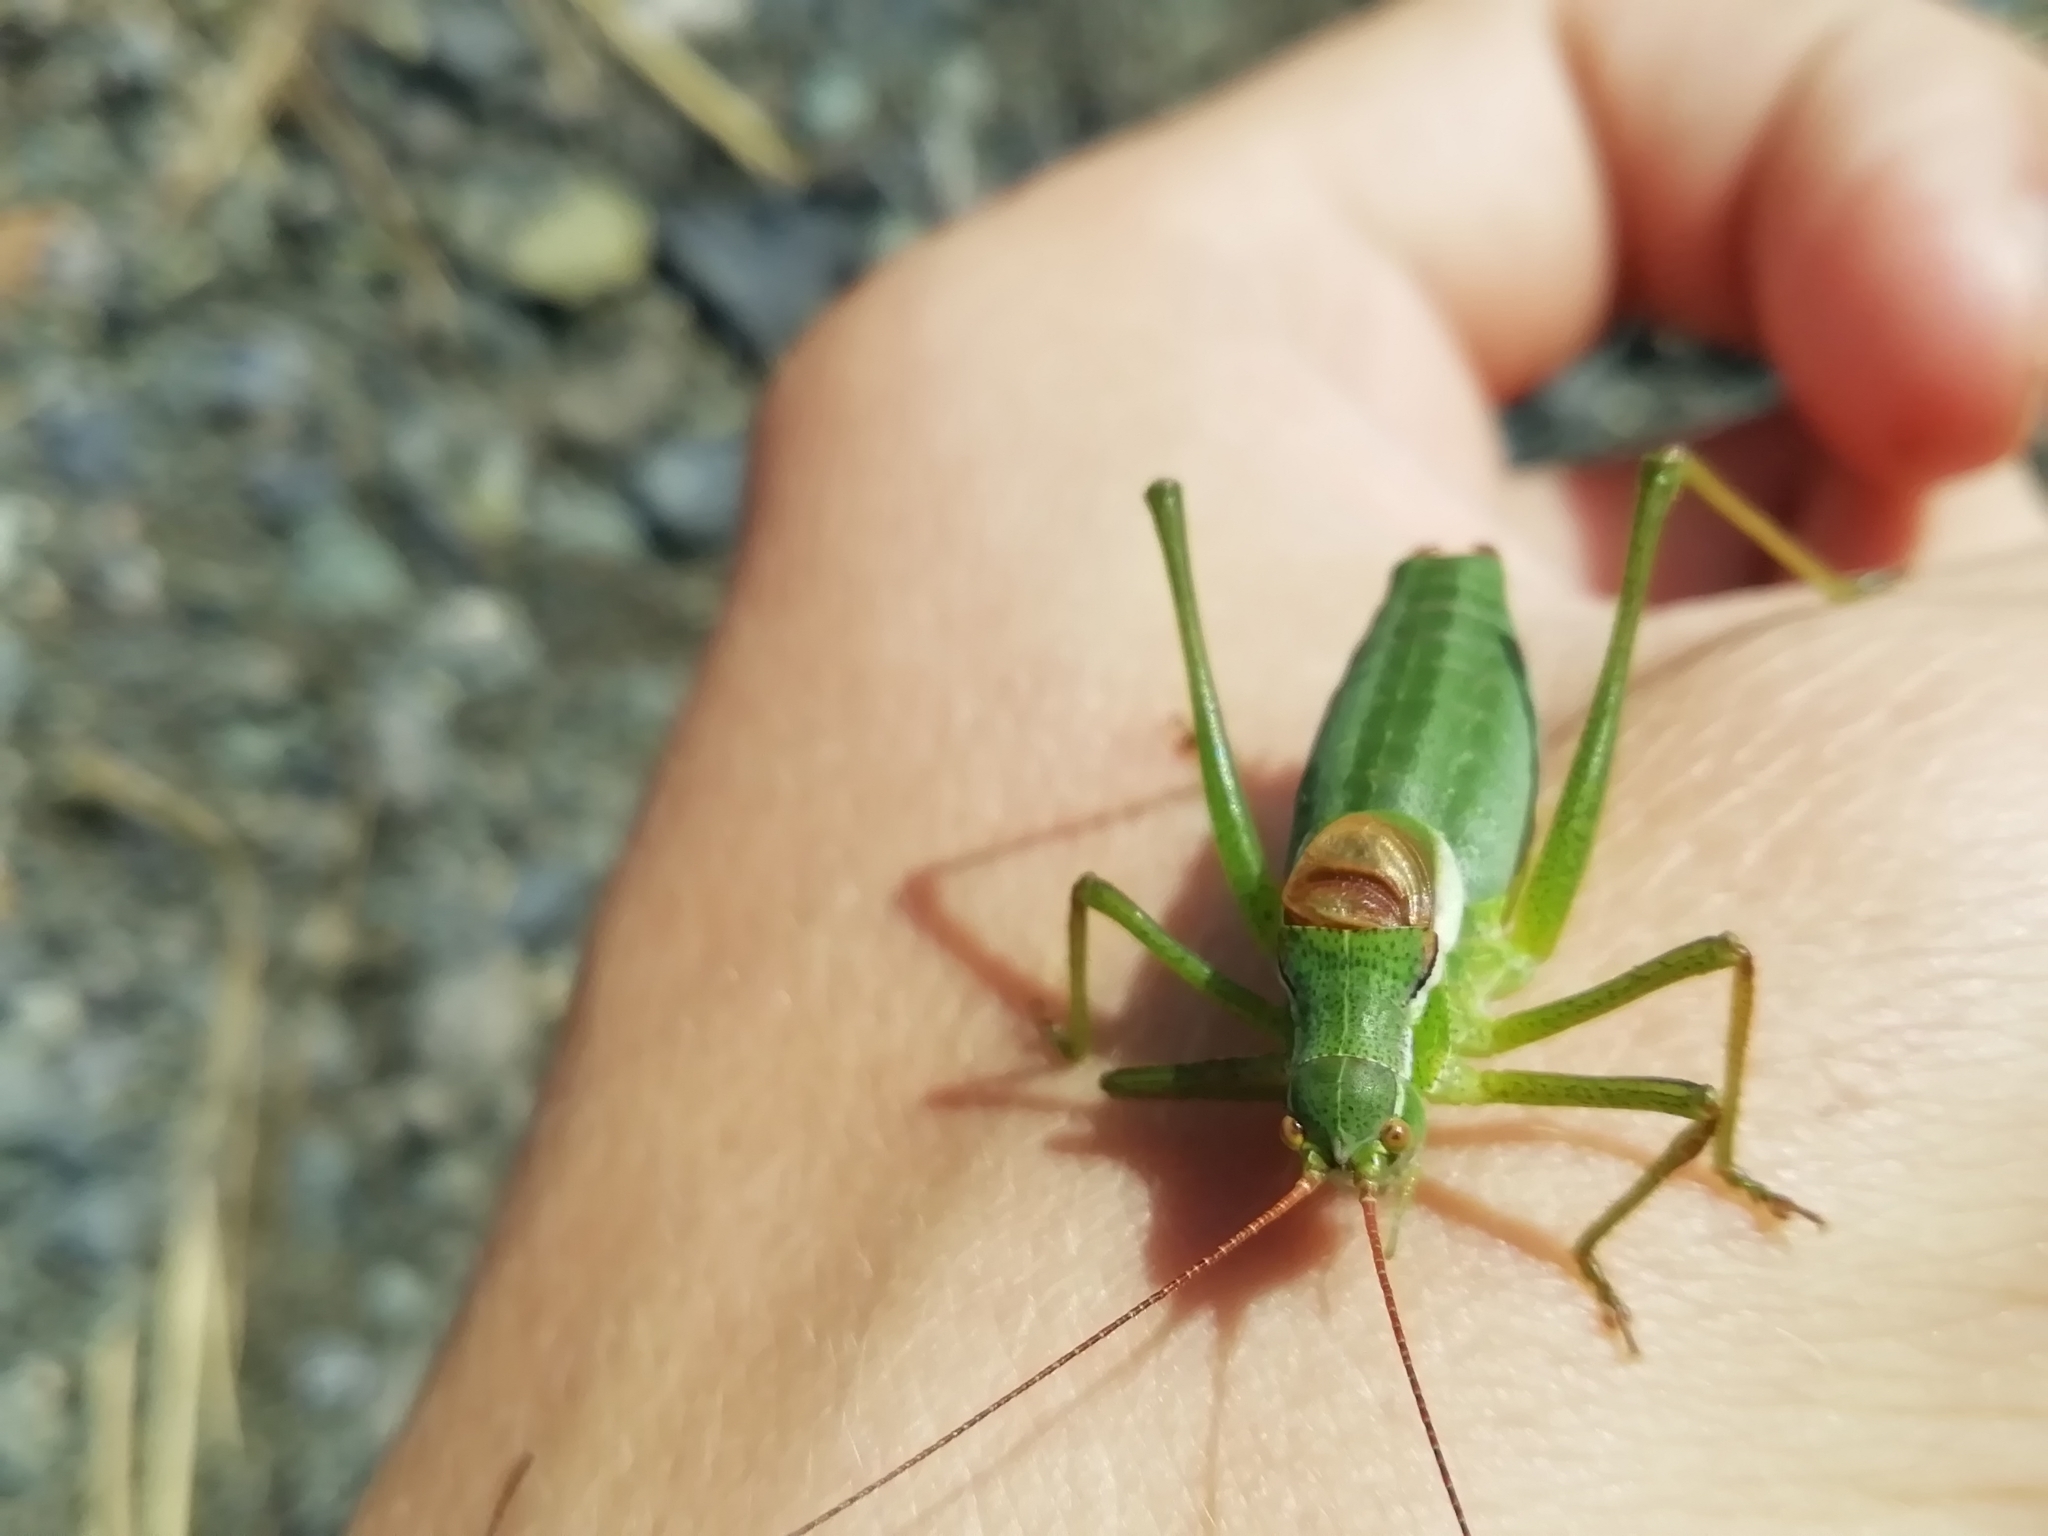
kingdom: Animalia
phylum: Arthropoda
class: Insecta
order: Orthoptera
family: Tettigoniidae
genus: Isophya
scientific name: Isophya altaica
